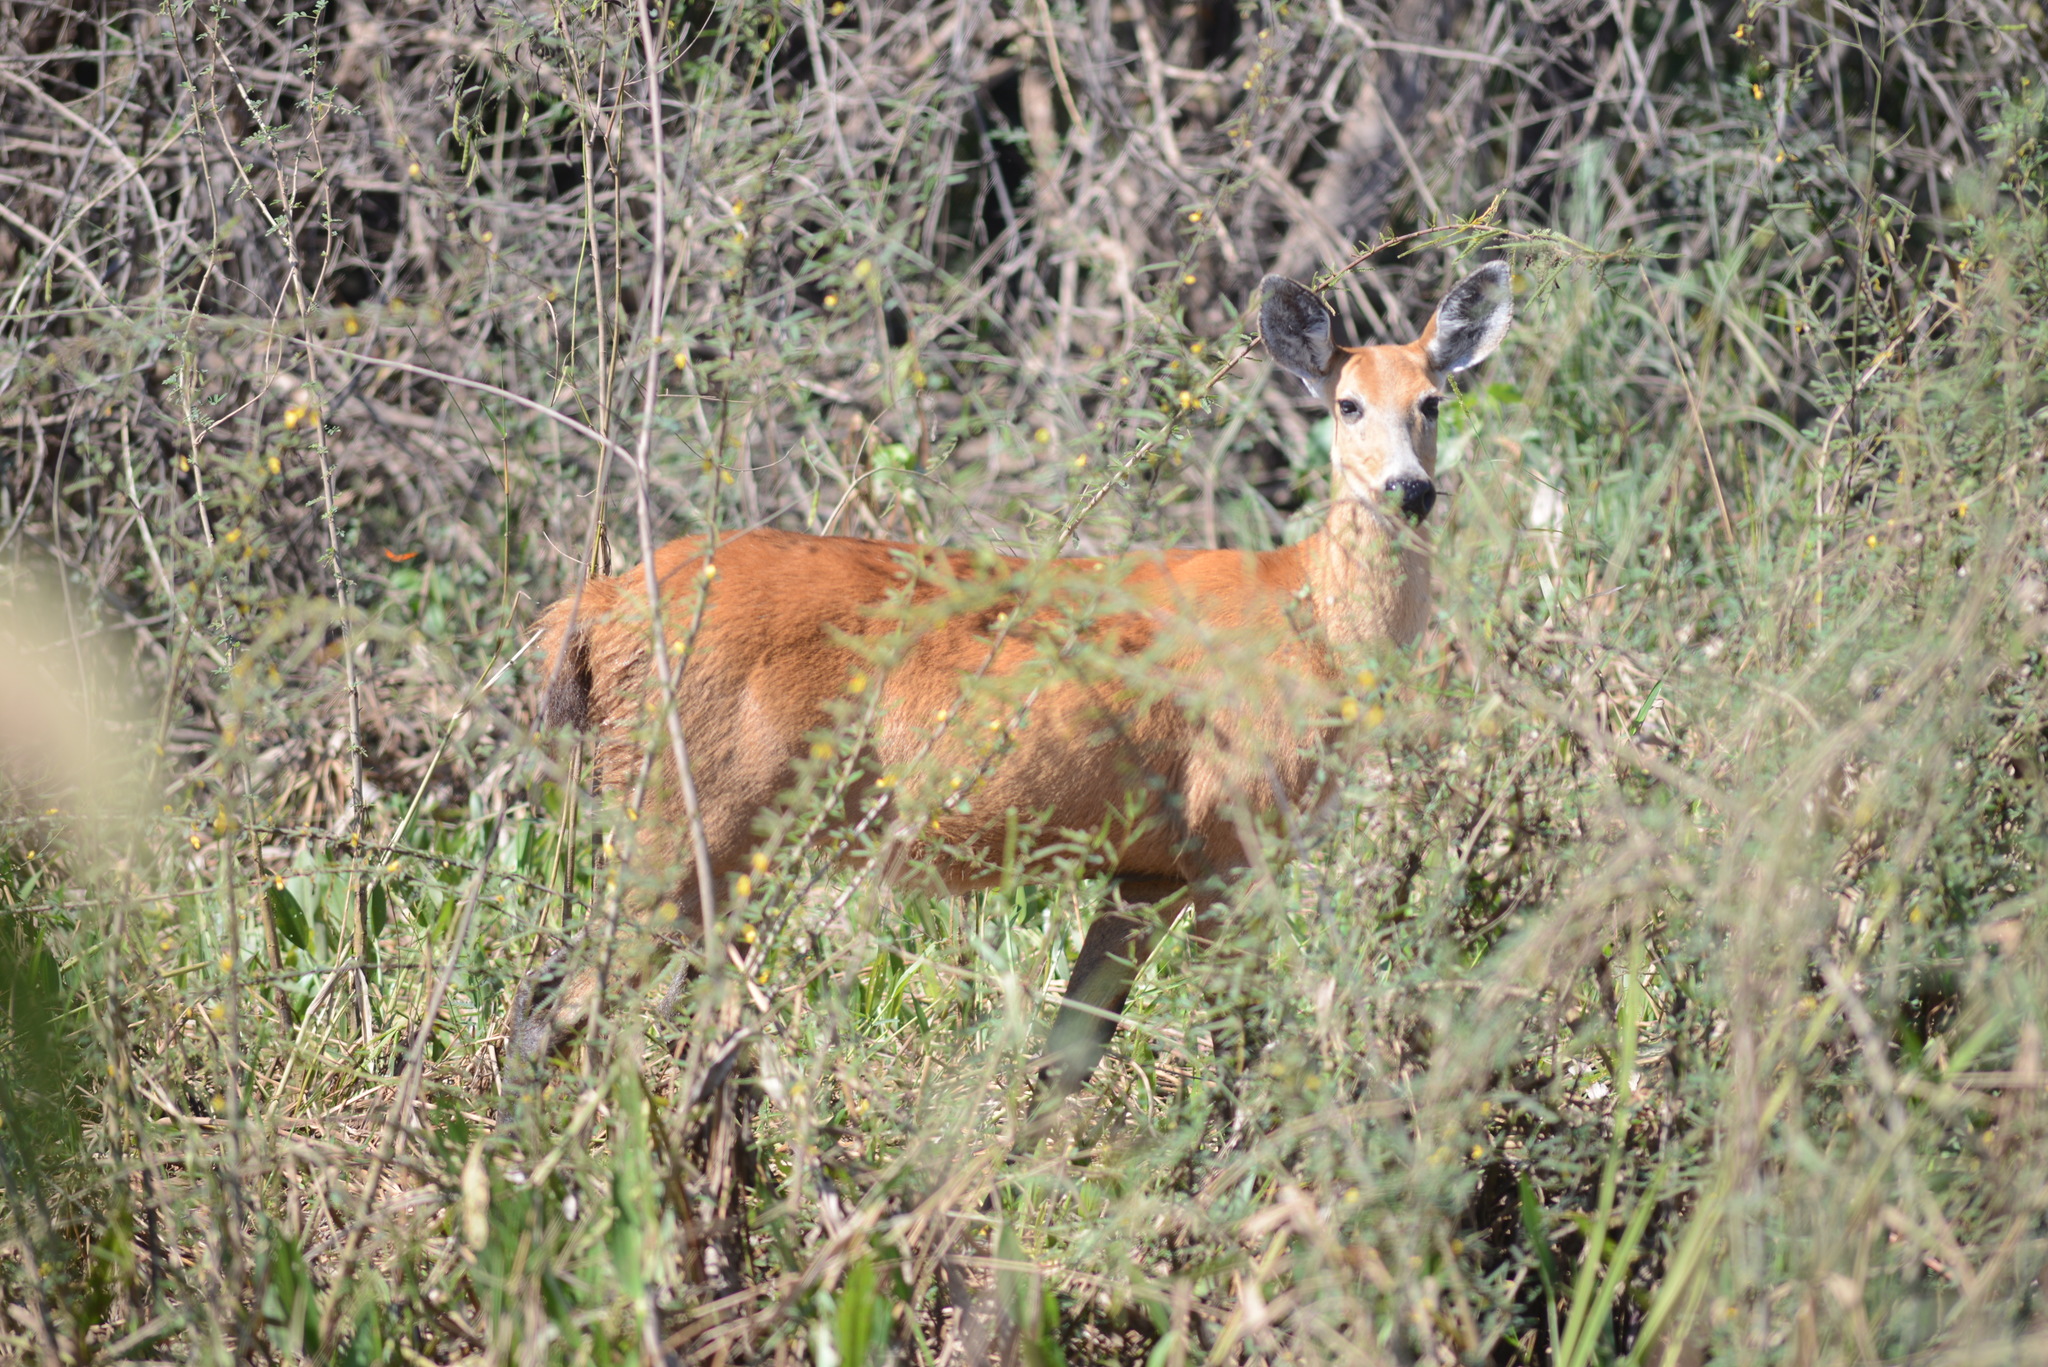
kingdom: Animalia
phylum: Chordata
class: Mammalia
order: Artiodactyla
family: Cervidae
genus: Blastocerus
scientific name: Blastocerus dichotomus
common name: Marsh deer
